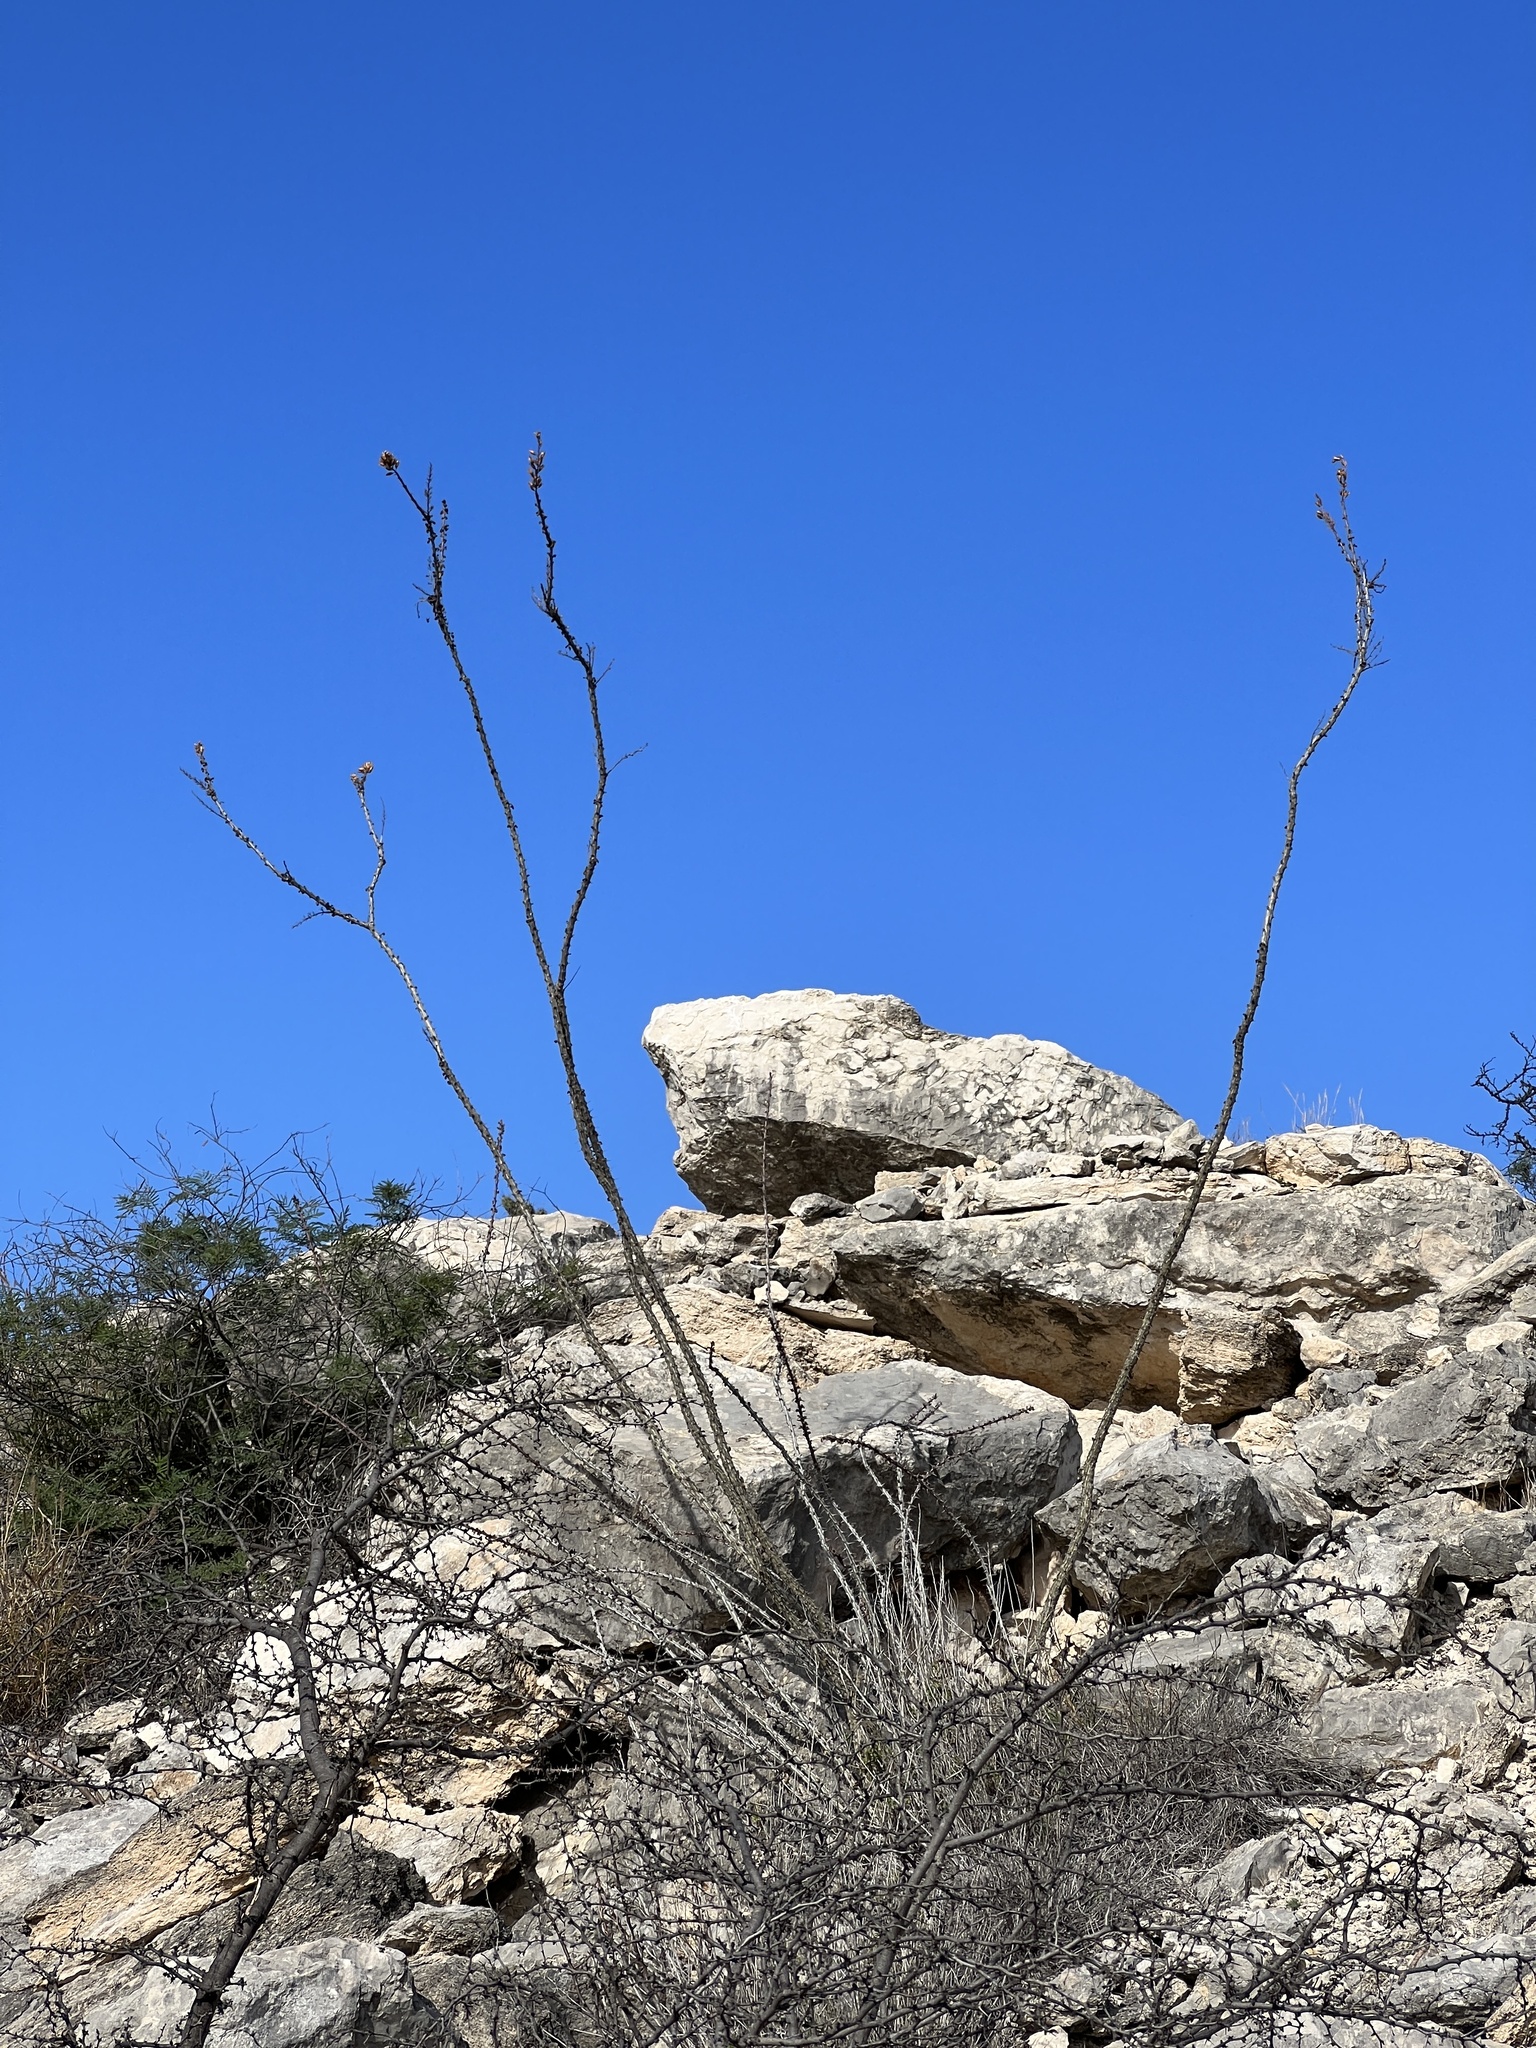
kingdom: Plantae
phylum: Tracheophyta
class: Magnoliopsida
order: Ericales
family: Fouquieriaceae
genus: Fouquieria
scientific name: Fouquieria splendens
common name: Vine-cactus
